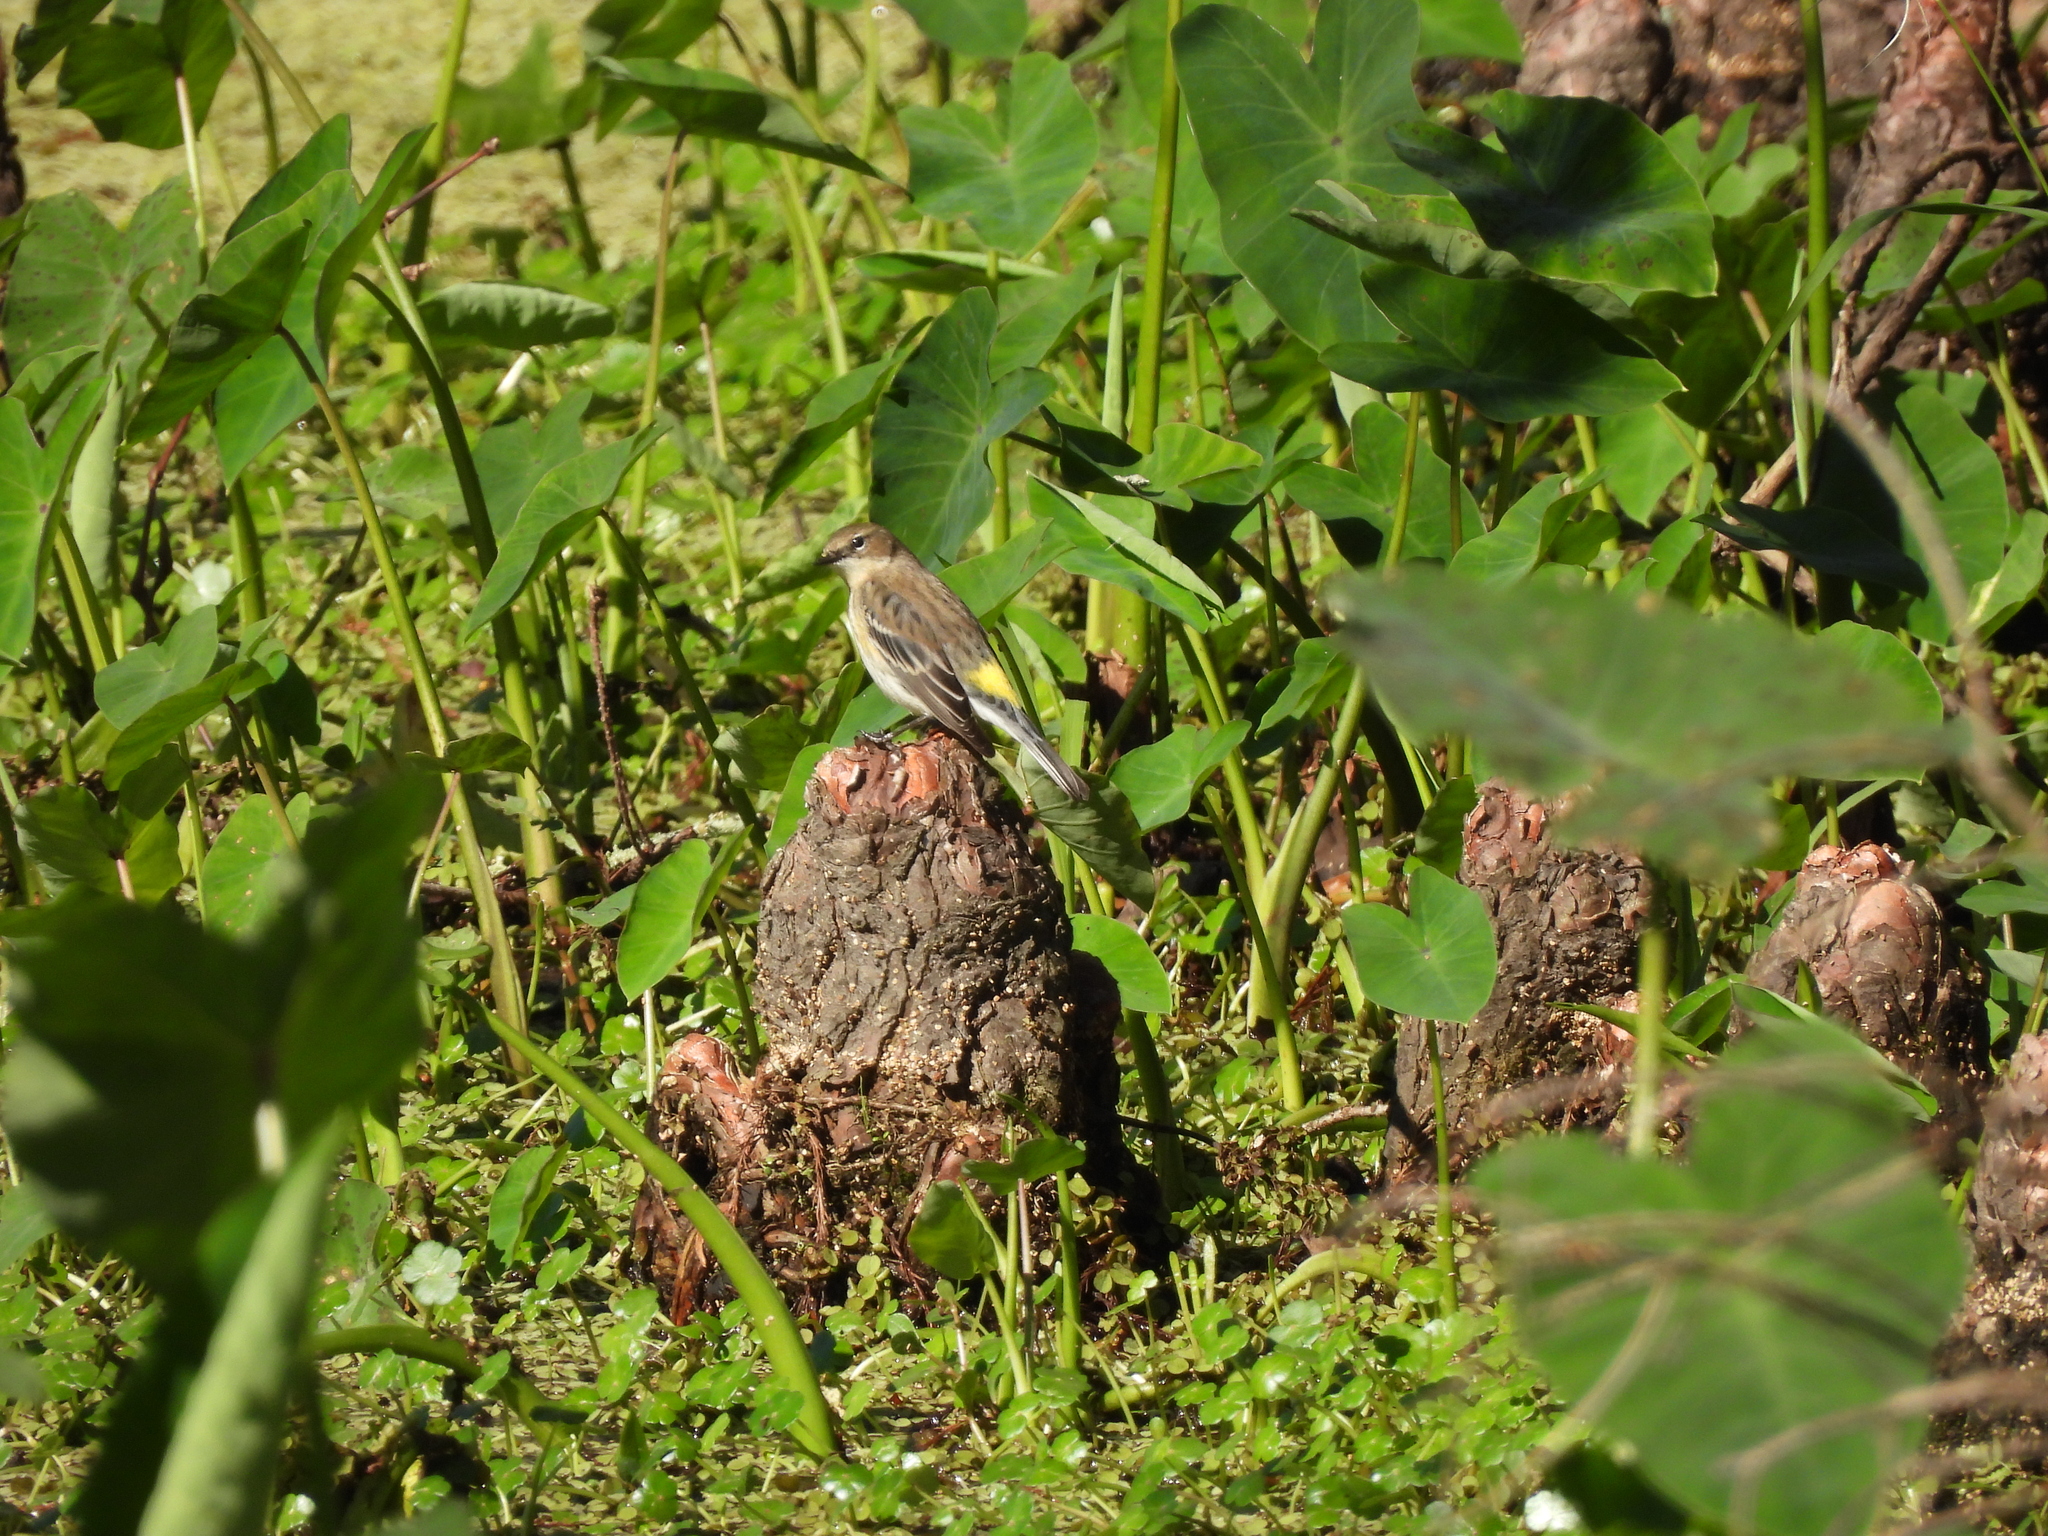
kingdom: Animalia
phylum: Chordata
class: Aves
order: Passeriformes
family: Parulidae
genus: Setophaga
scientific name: Setophaga coronata
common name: Myrtle warbler
